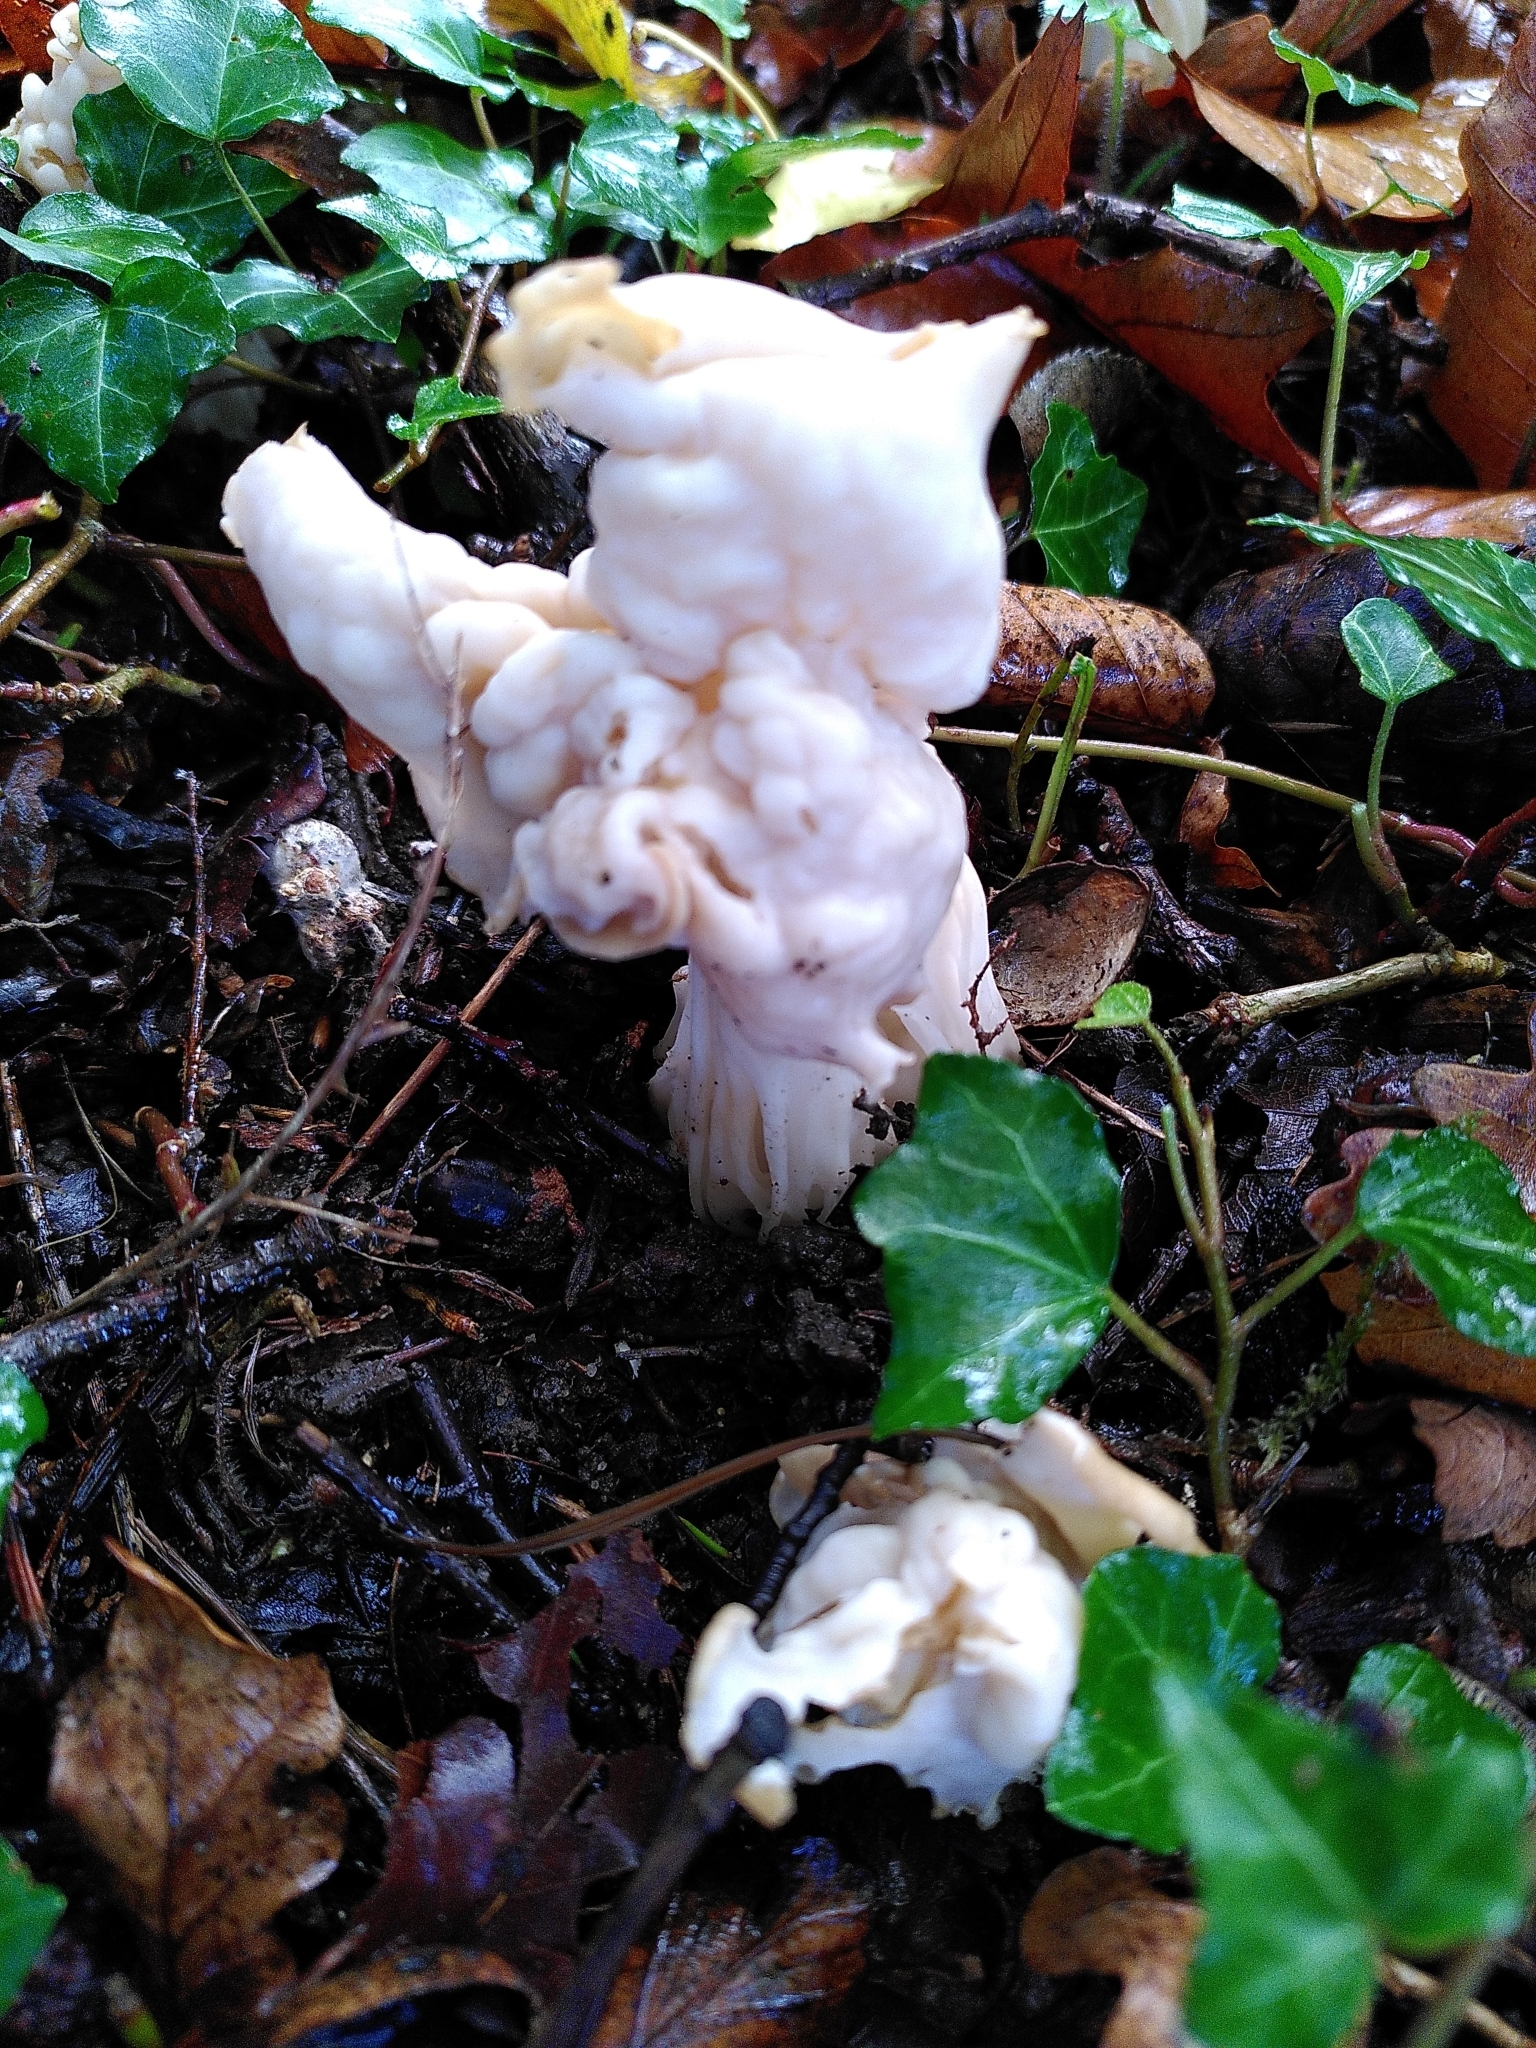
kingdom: Fungi
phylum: Ascomycota
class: Pezizomycetes
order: Pezizales
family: Helvellaceae
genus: Helvella
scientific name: Helvella crispa
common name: White saddle
